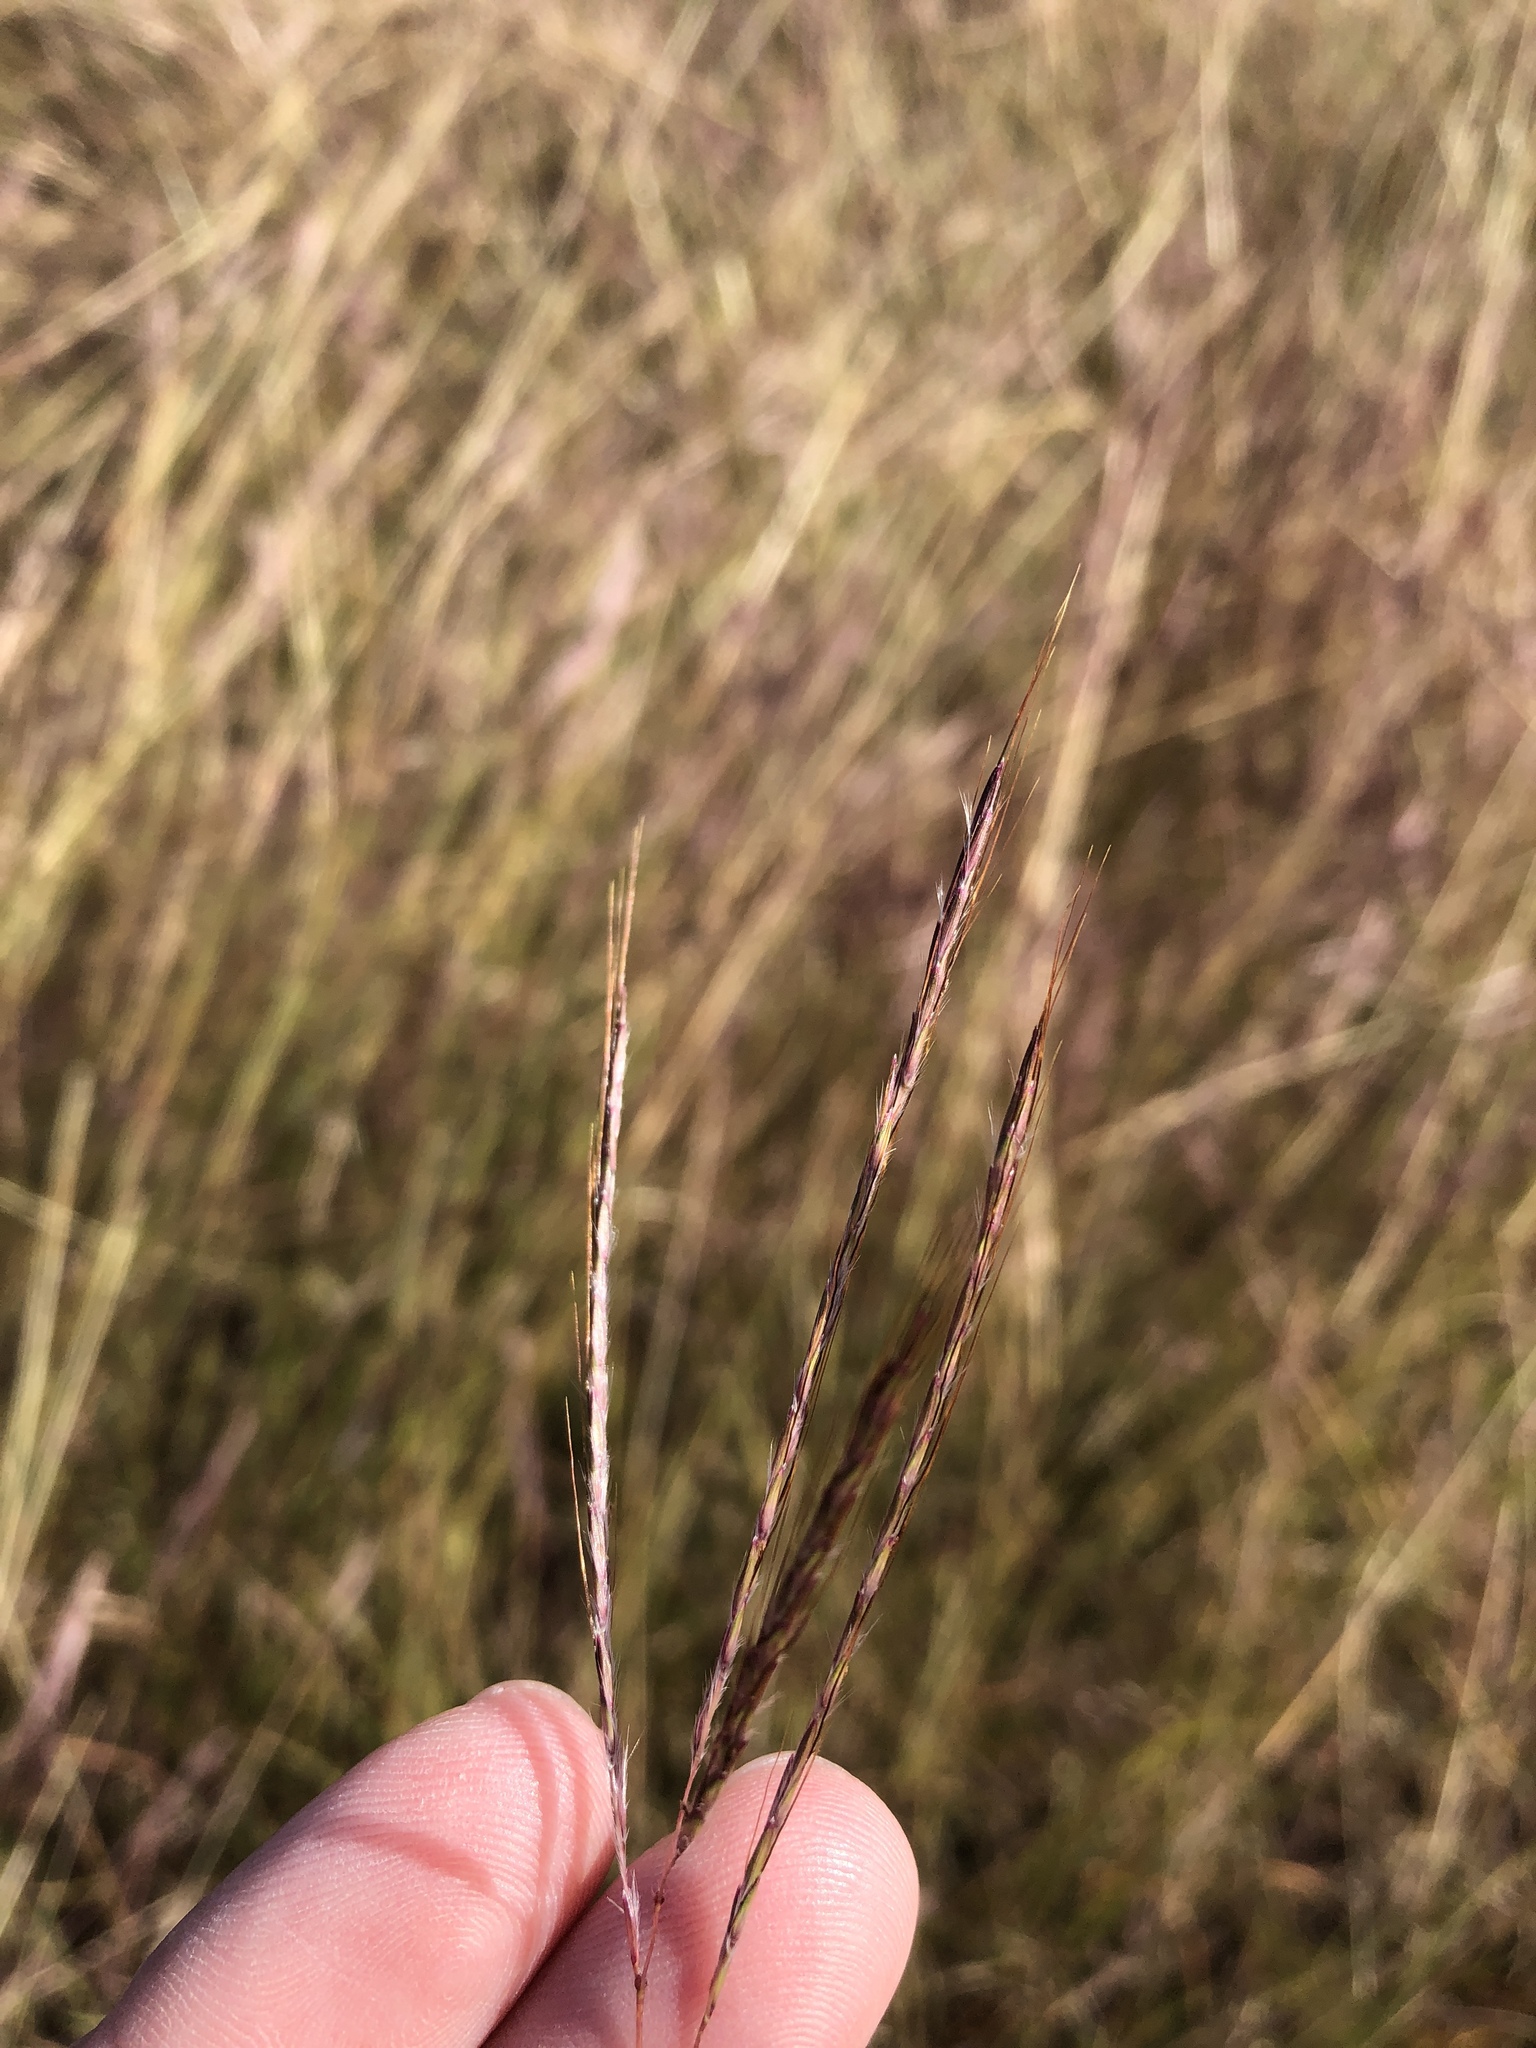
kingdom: Plantae
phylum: Tracheophyta
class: Liliopsida
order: Poales
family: Poaceae
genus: Bothriochloa
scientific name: Bothriochloa ischaemum
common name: Yellow bluestem
